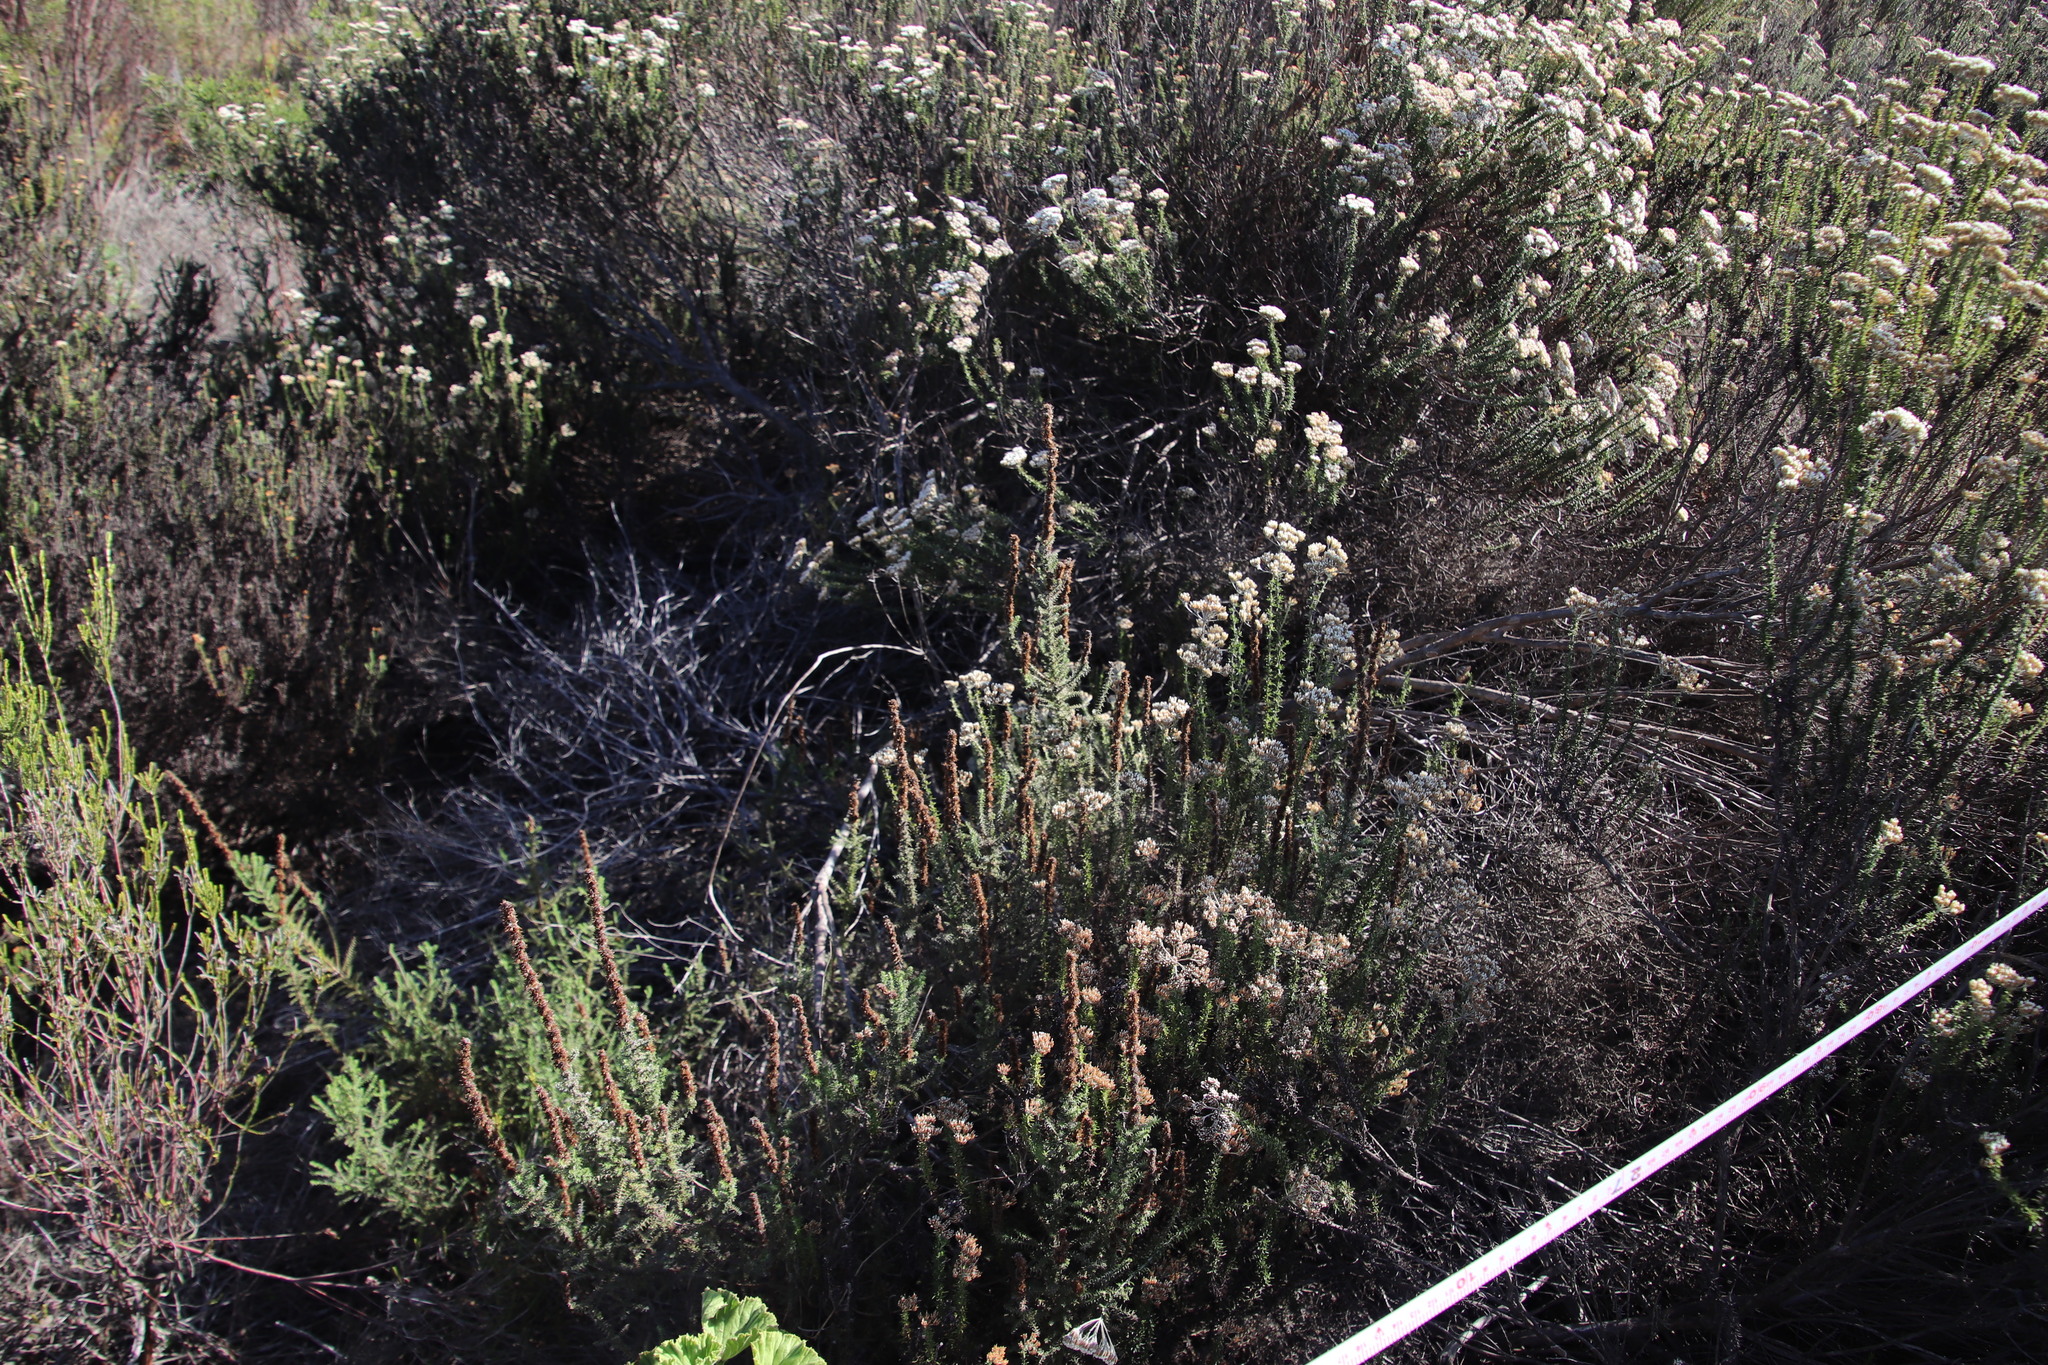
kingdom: Plantae
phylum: Tracheophyta
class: Magnoliopsida
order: Asterales
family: Asteraceae
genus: Seriphium
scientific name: Seriphium cinereum
